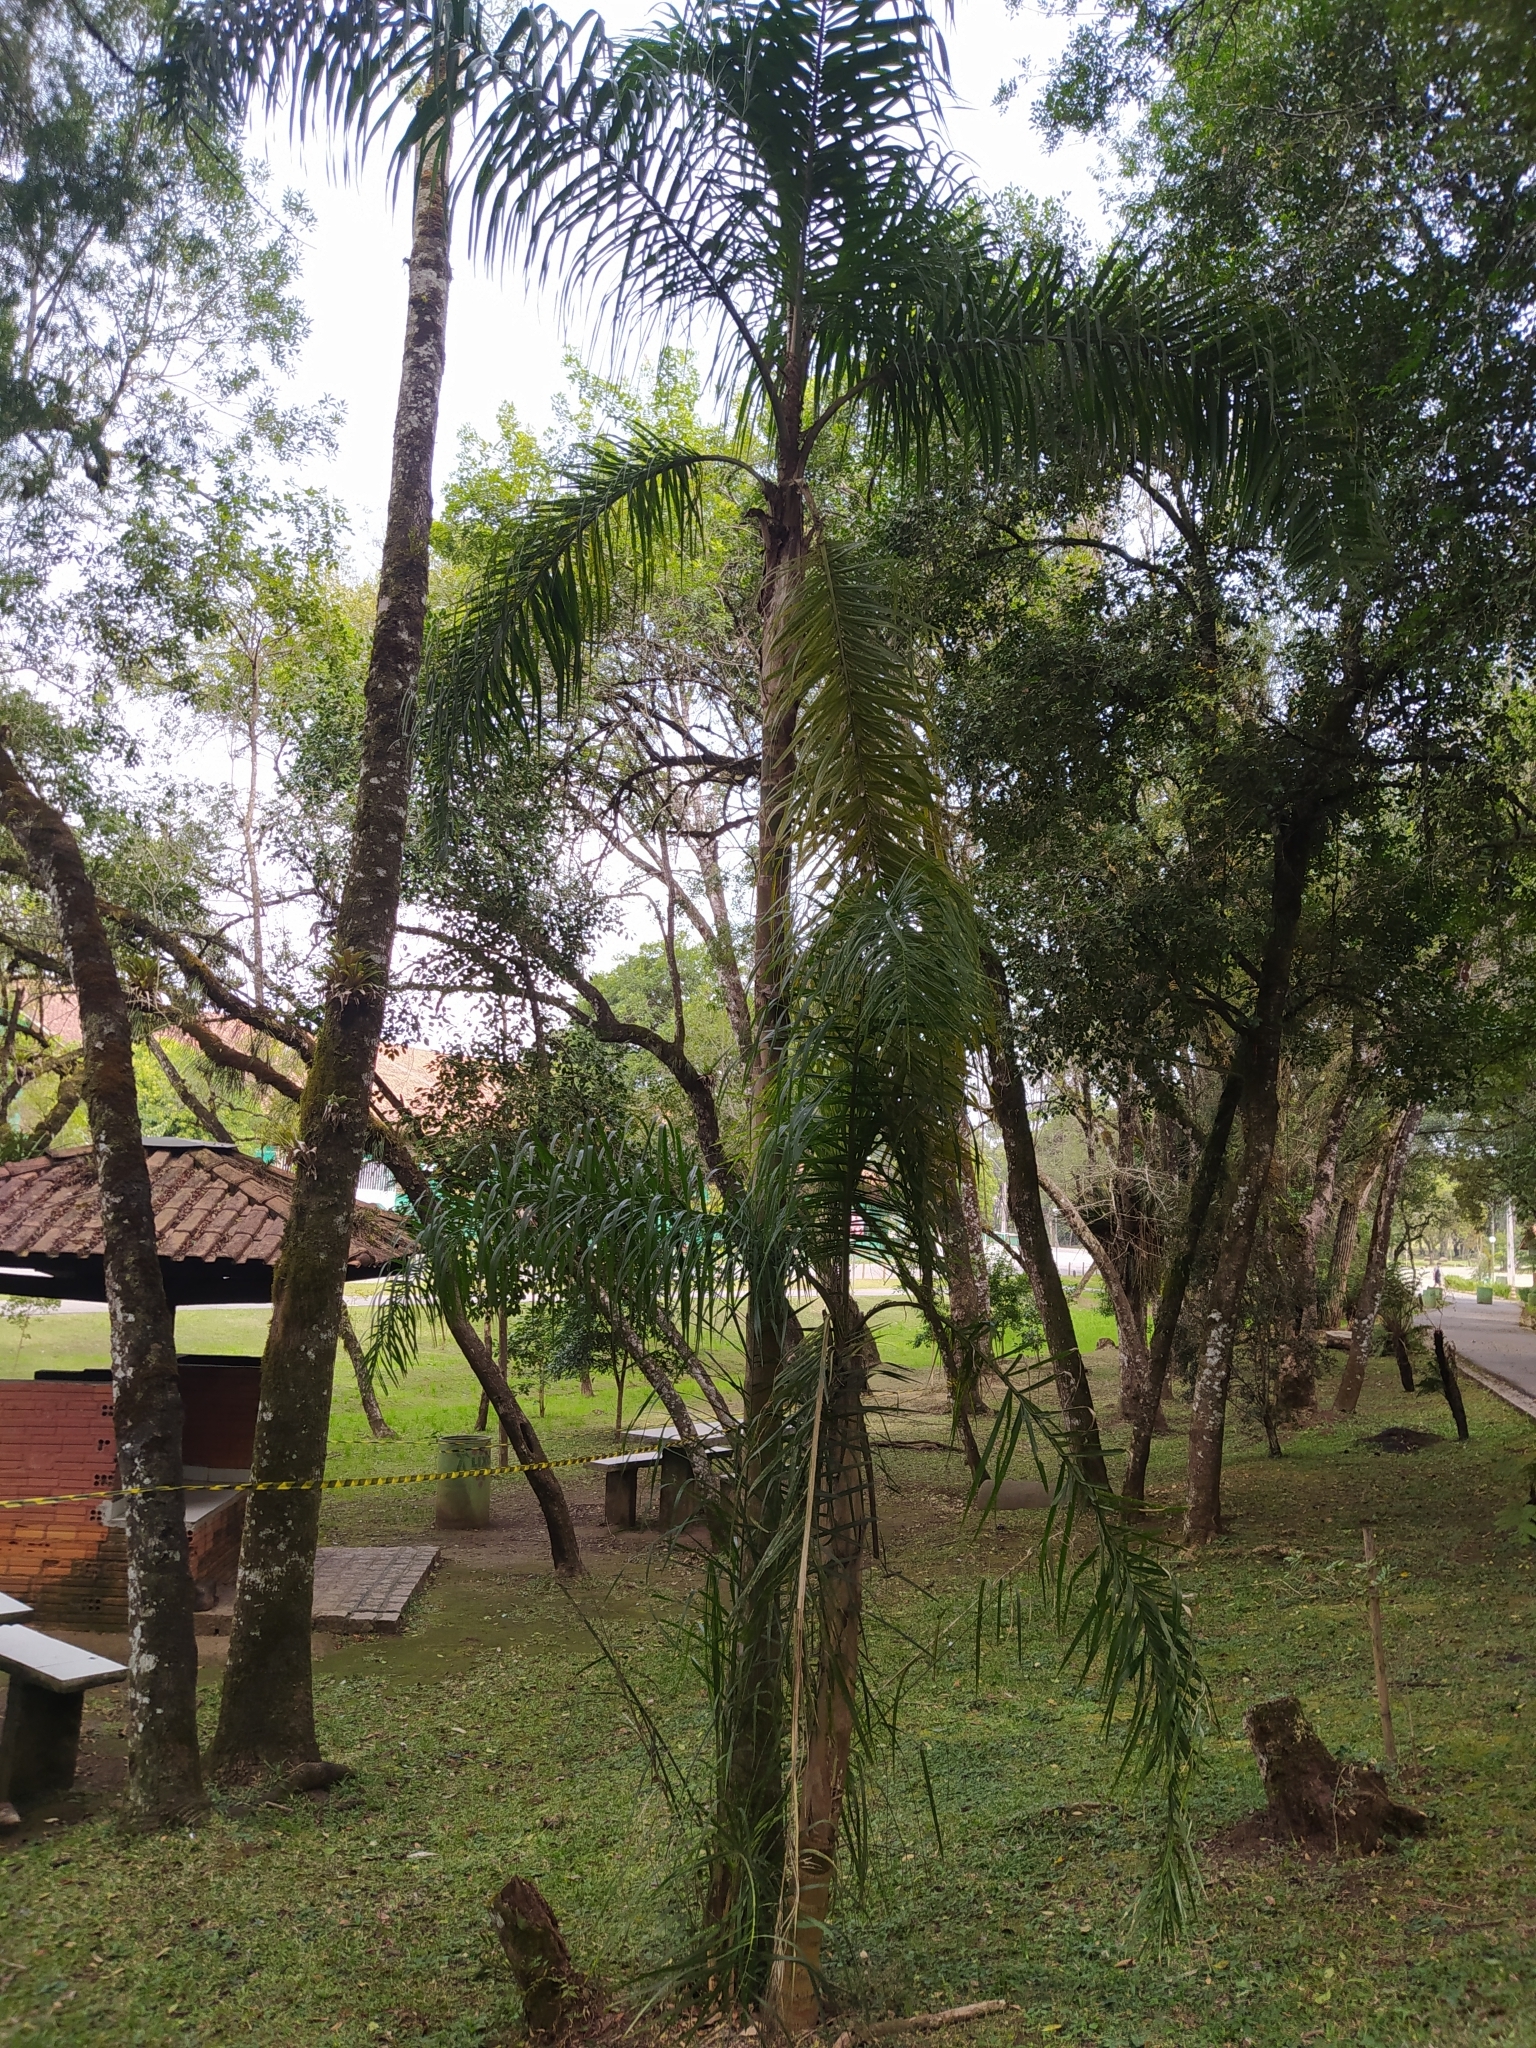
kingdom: Plantae
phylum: Tracheophyta
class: Liliopsida
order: Arecales
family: Arecaceae
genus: Syagrus
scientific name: Syagrus romanzoffiana
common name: Queen palm
